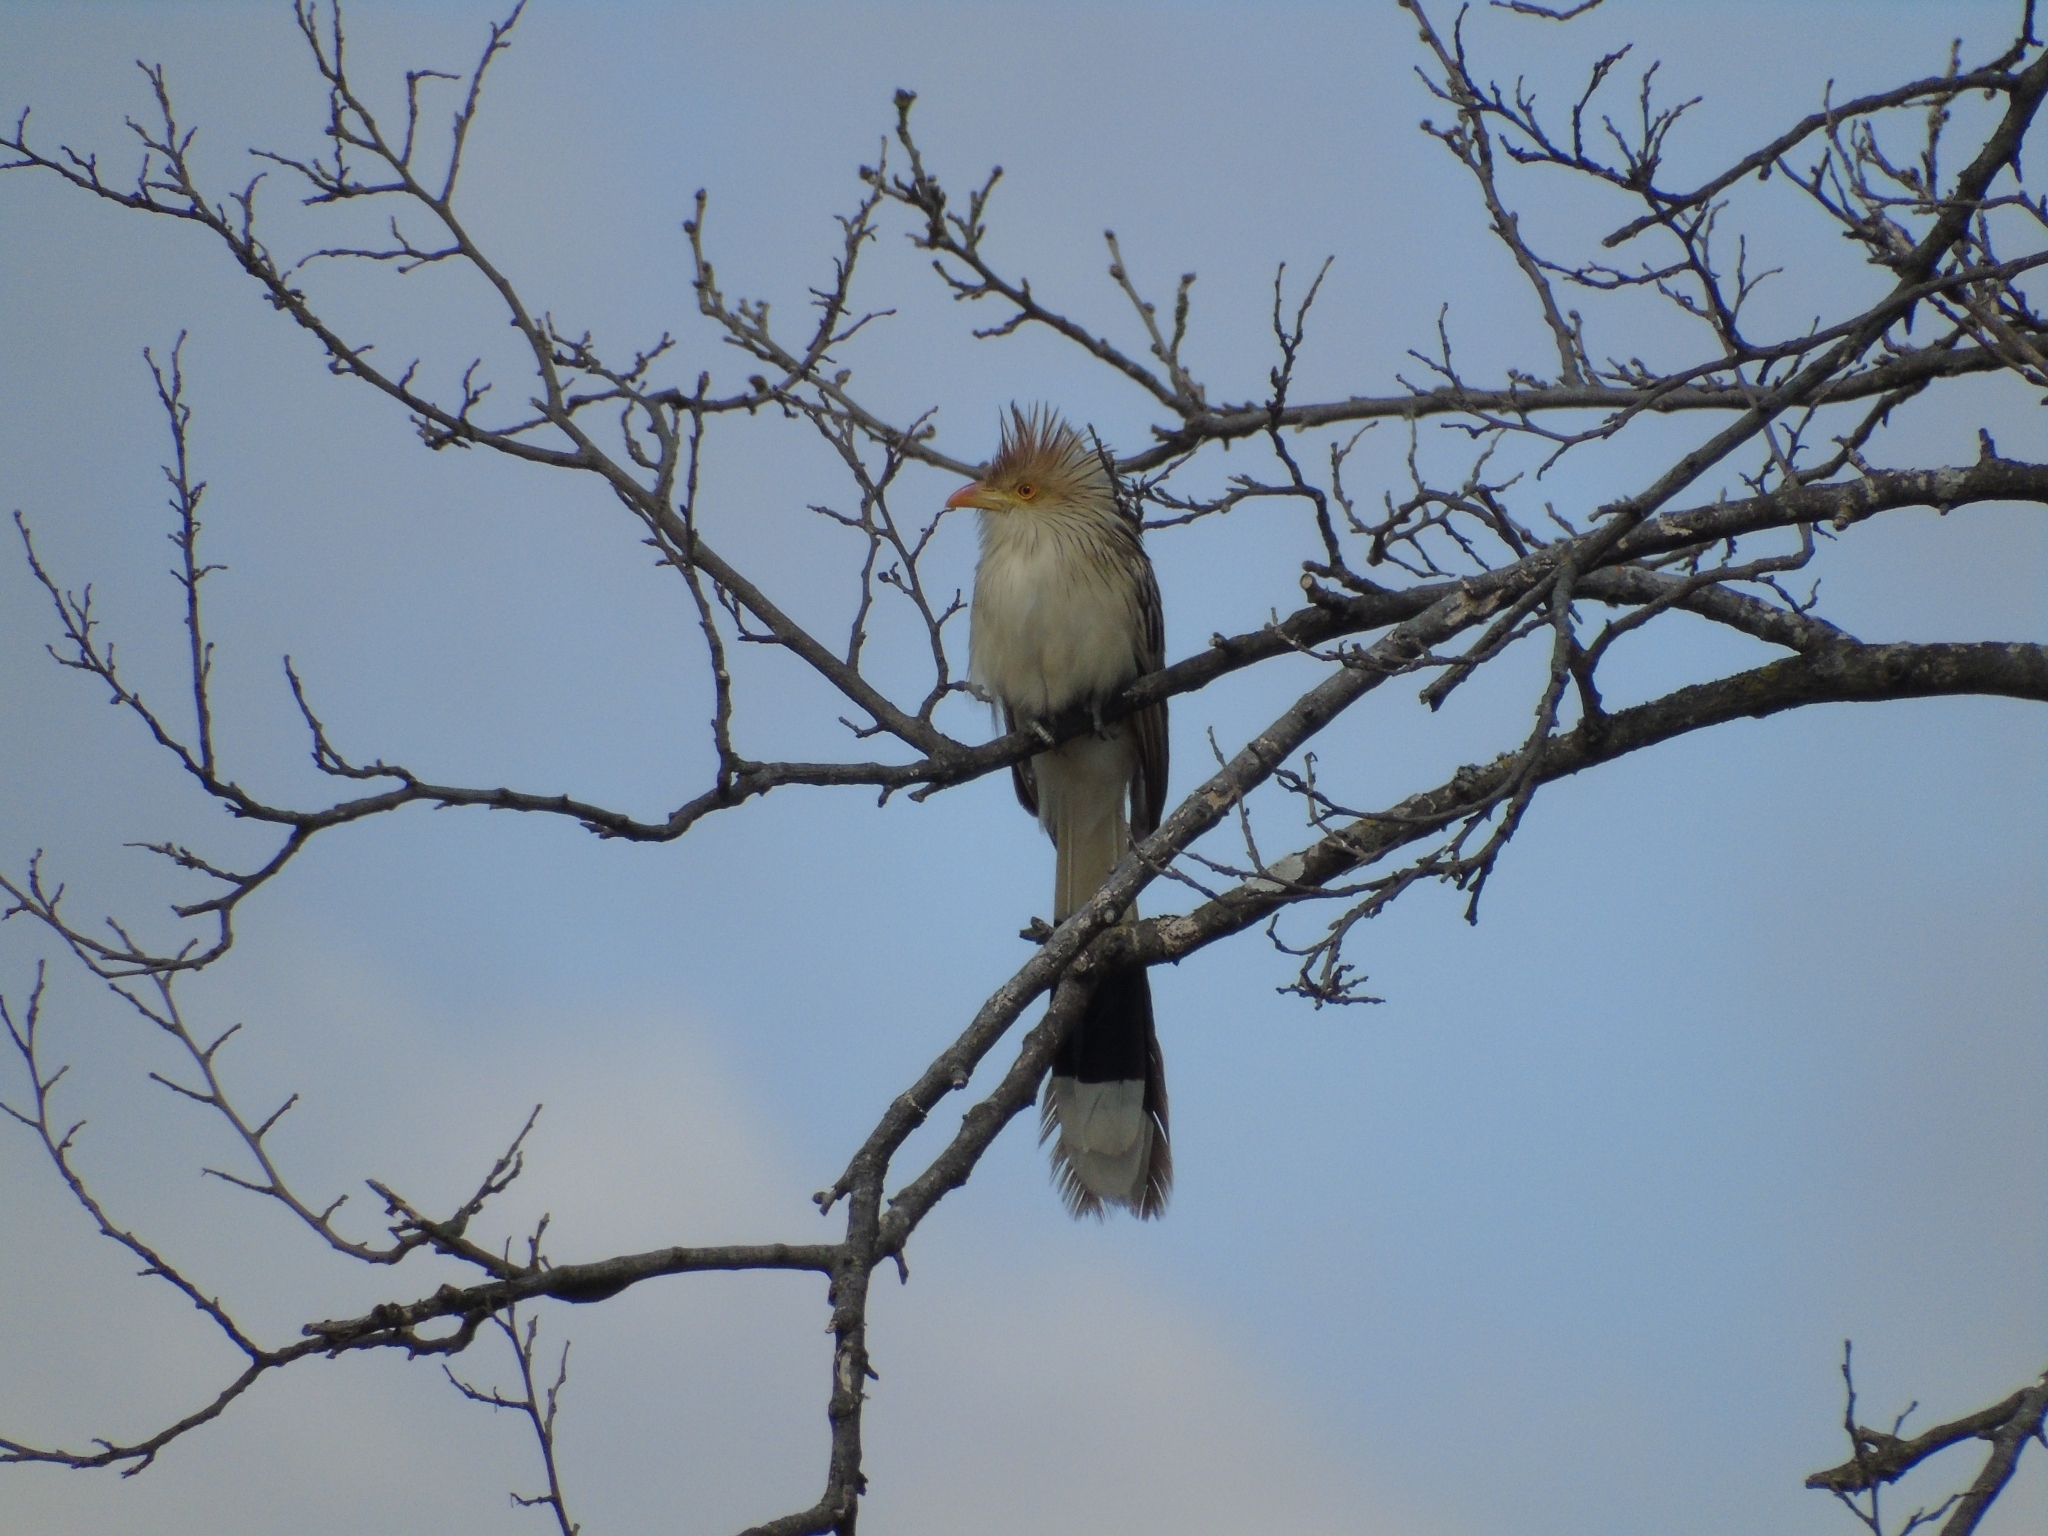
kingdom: Animalia
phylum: Chordata
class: Aves
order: Cuculiformes
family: Cuculidae
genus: Guira
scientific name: Guira guira
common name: Guira cuckoo
